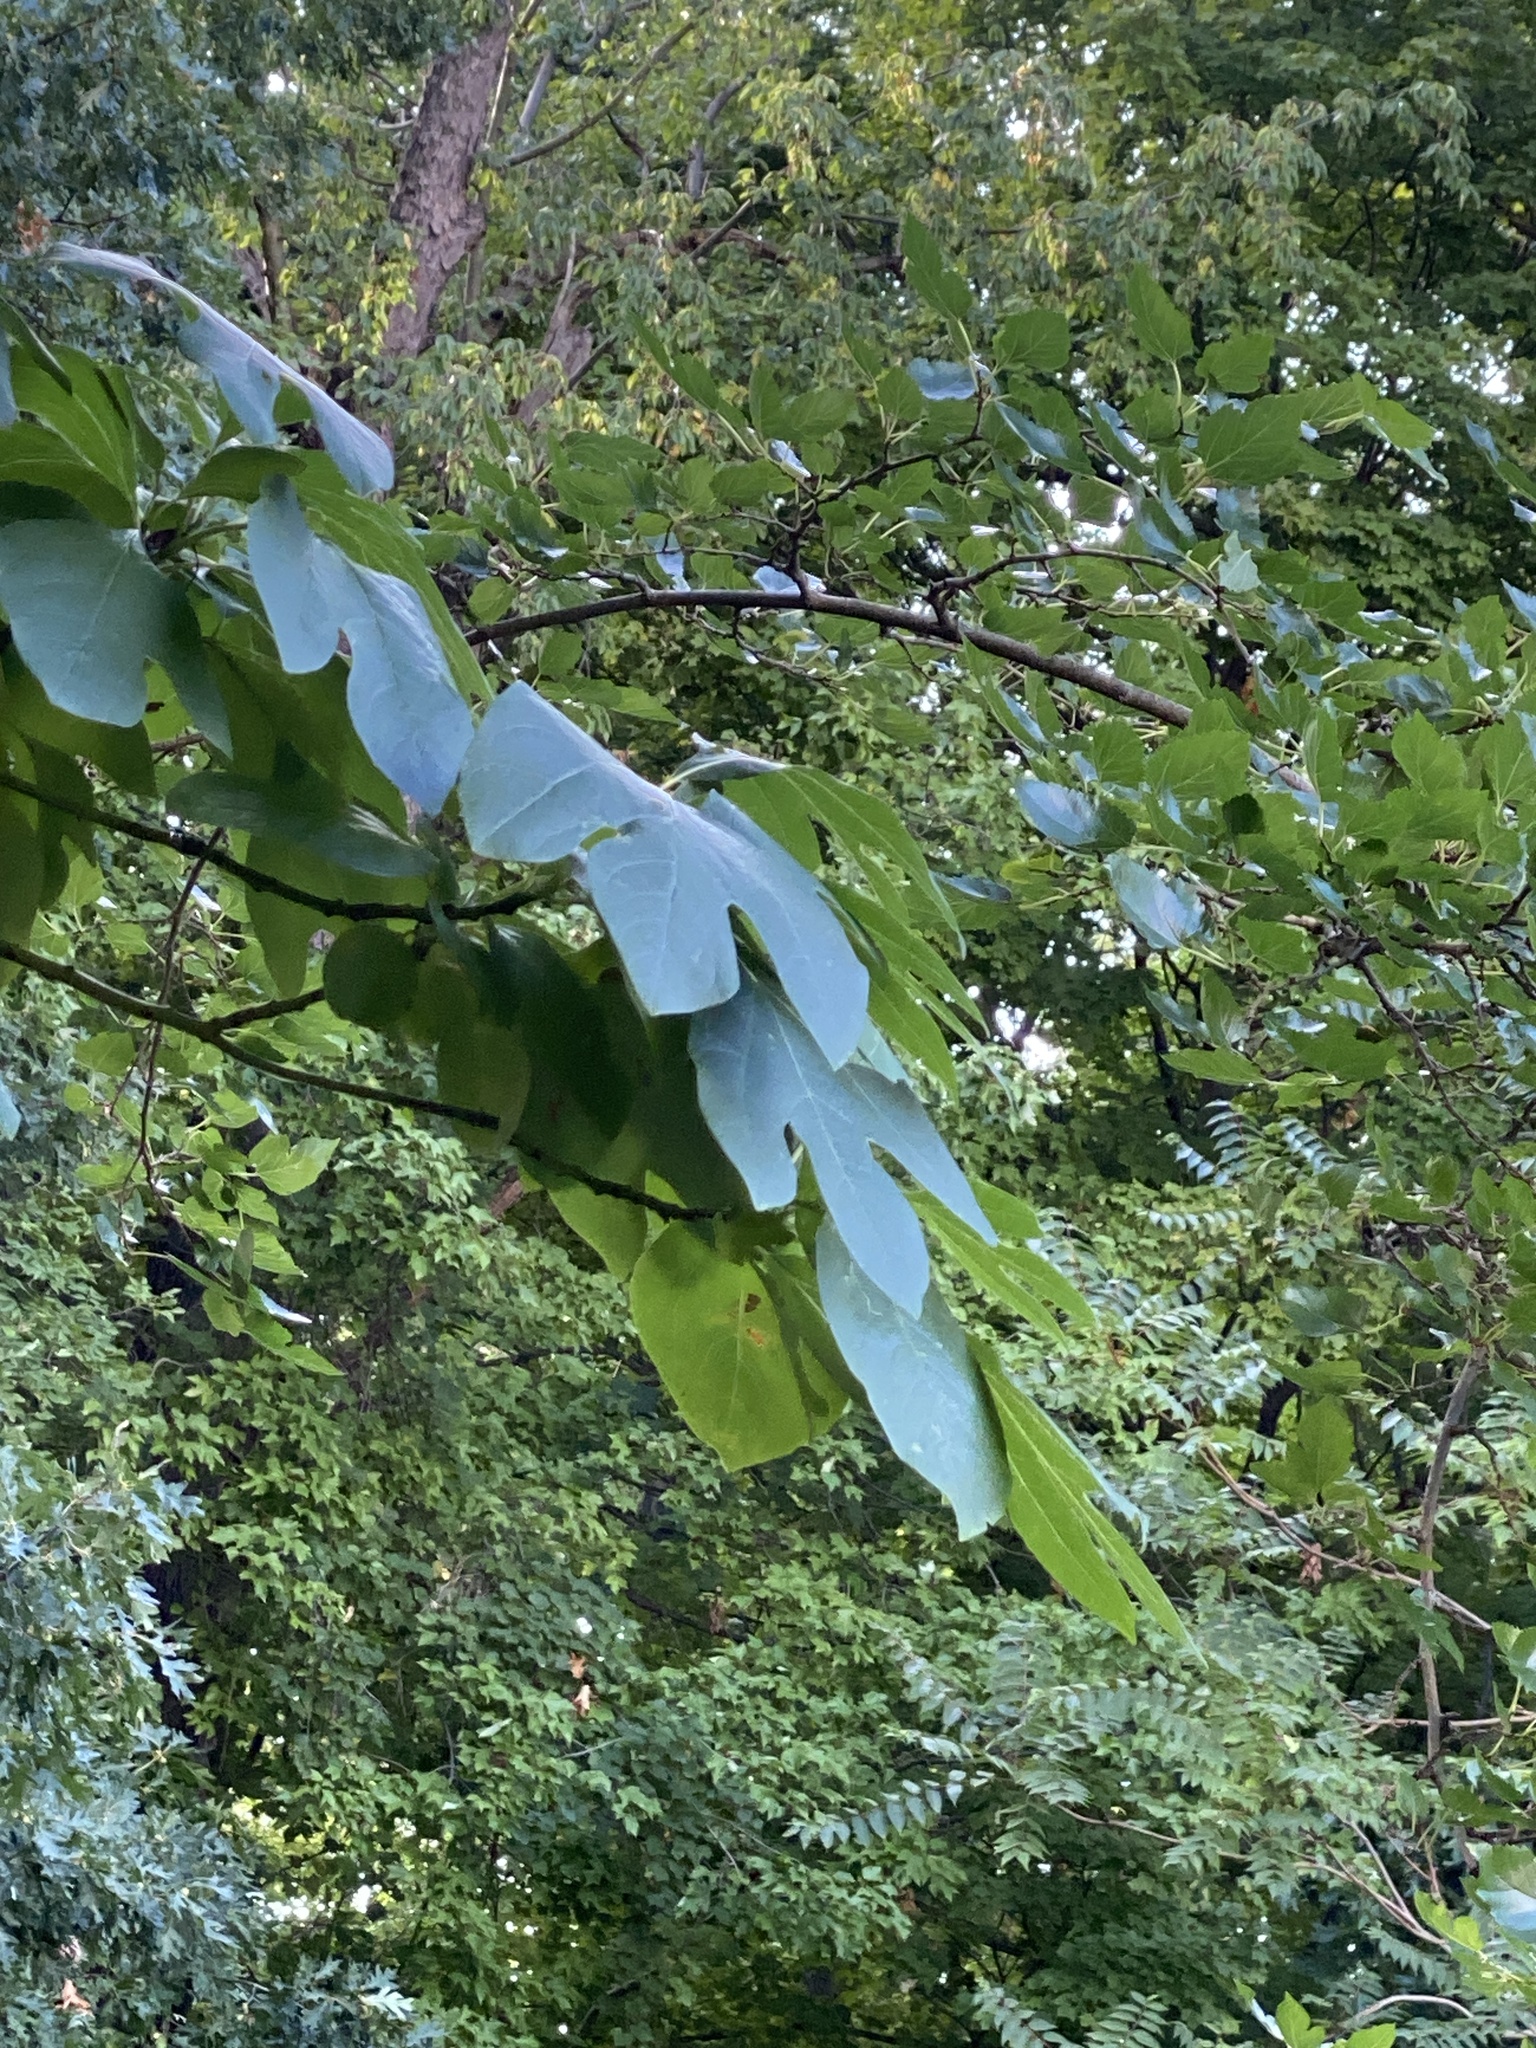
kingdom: Plantae
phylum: Tracheophyta
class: Magnoliopsida
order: Laurales
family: Lauraceae
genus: Sassafras
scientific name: Sassafras albidum
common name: Sassafras
